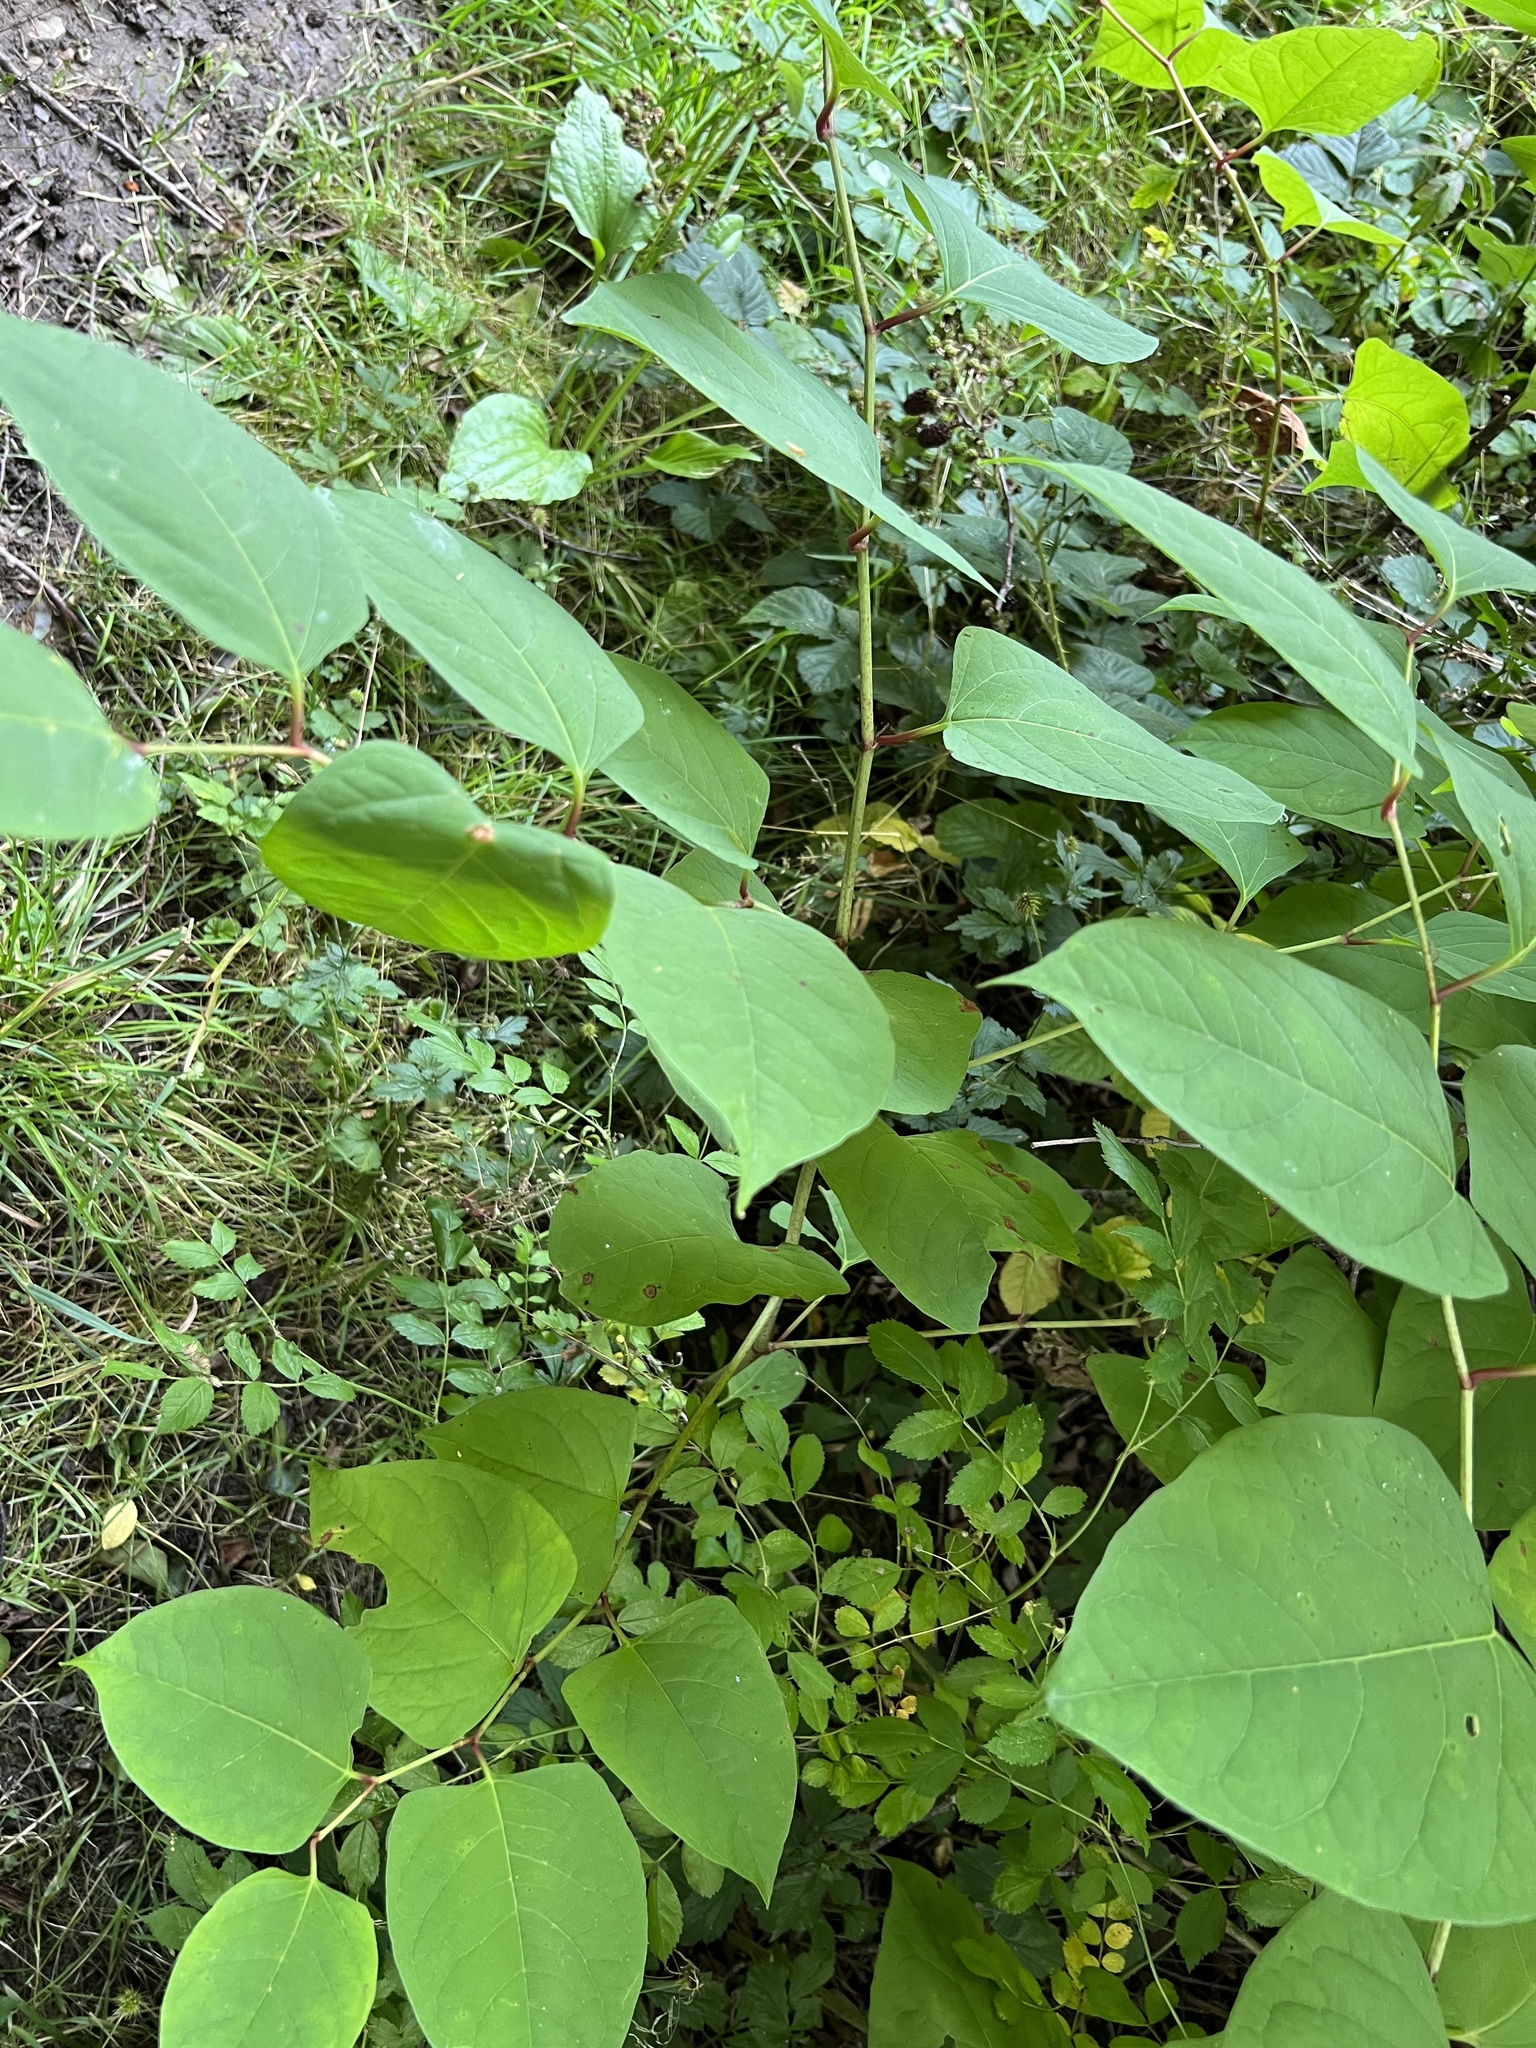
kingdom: Plantae
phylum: Tracheophyta
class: Magnoliopsida
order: Caryophyllales
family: Polygonaceae
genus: Reynoutria
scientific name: Reynoutria japonica
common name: Japanese knotweed
